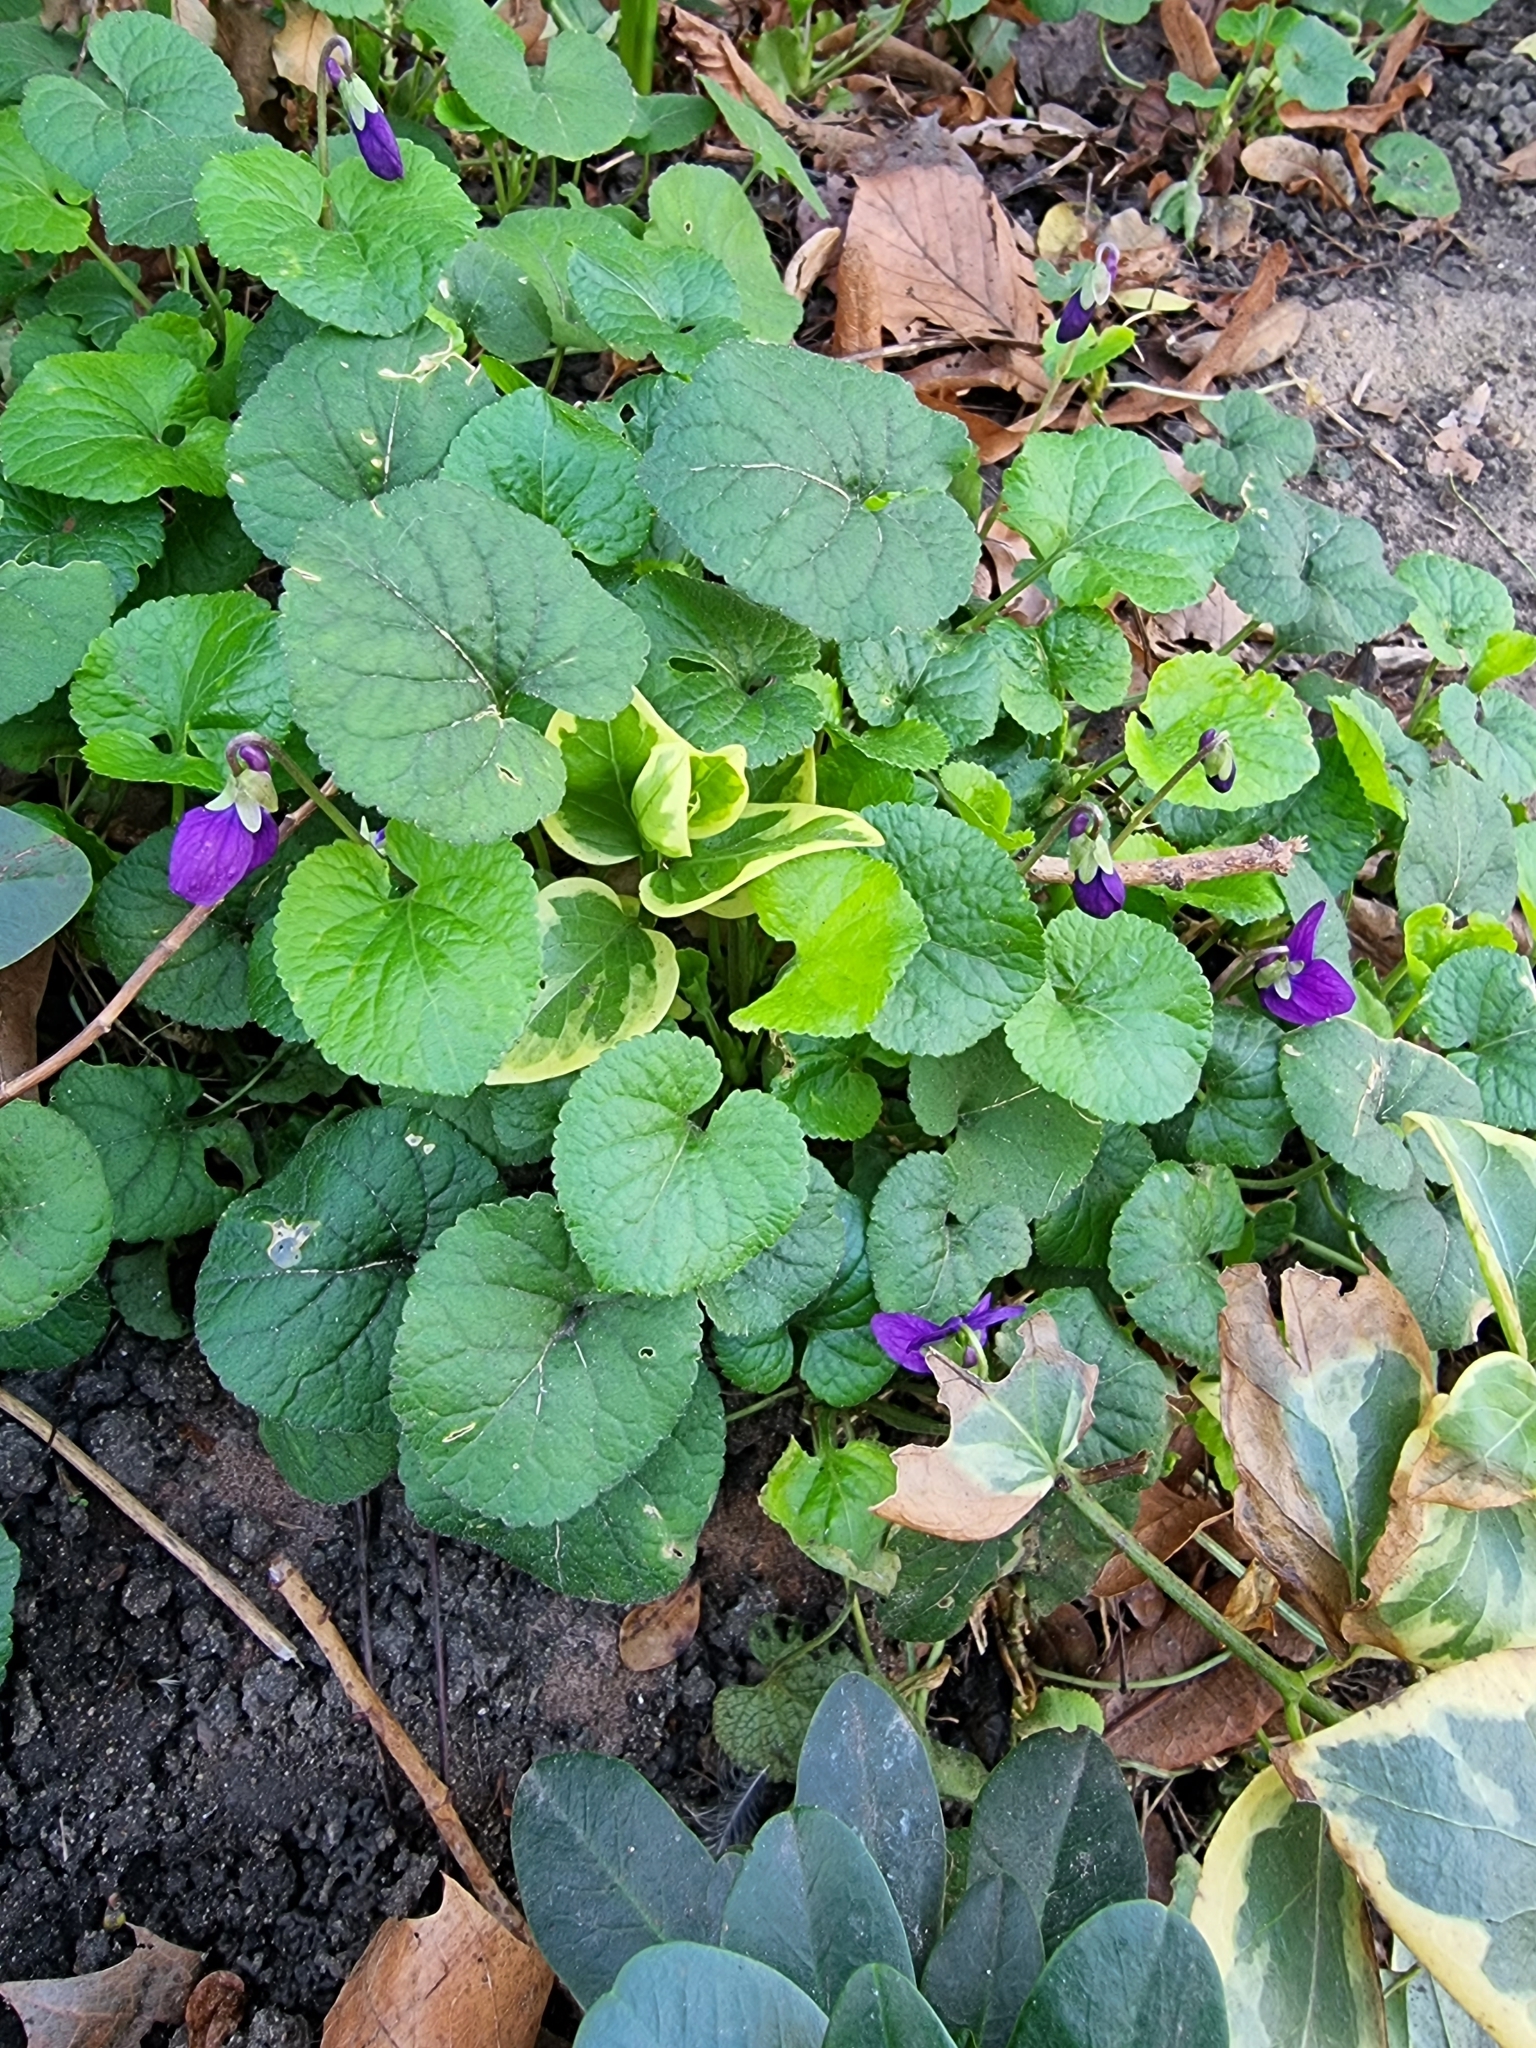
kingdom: Plantae
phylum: Tracheophyta
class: Magnoliopsida
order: Malpighiales
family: Violaceae
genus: Viola
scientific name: Viola odorata
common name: Sweet violet
